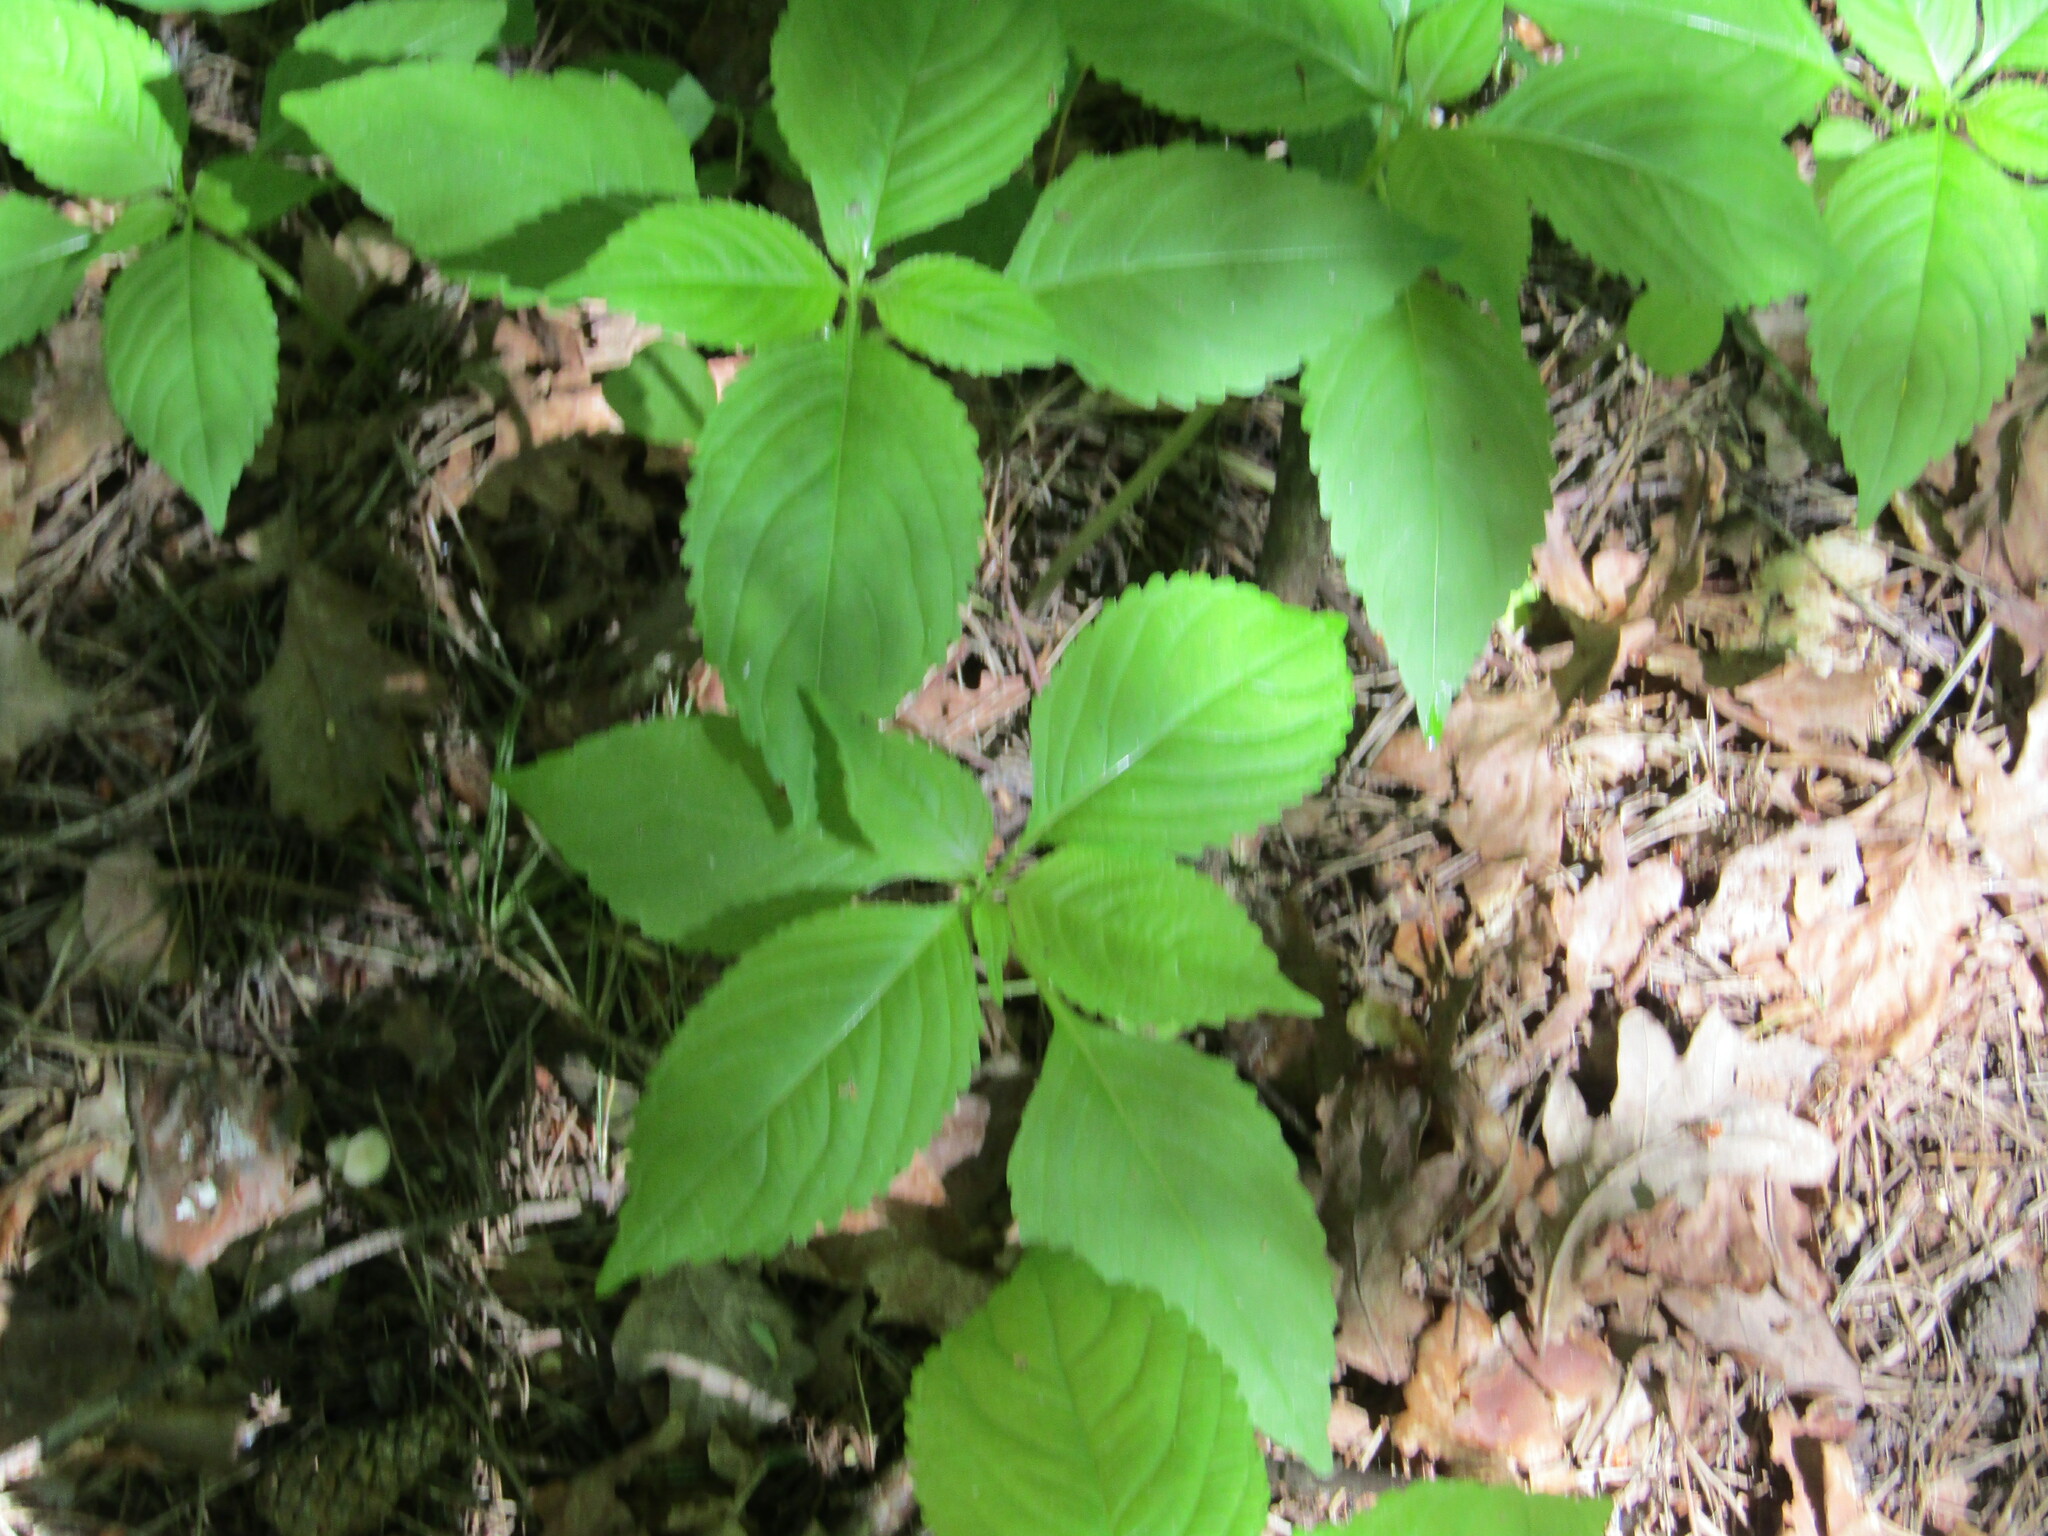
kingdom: Plantae
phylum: Tracheophyta
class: Magnoliopsida
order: Ericales
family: Balsaminaceae
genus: Impatiens
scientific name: Impatiens parviflora
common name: Small balsam
